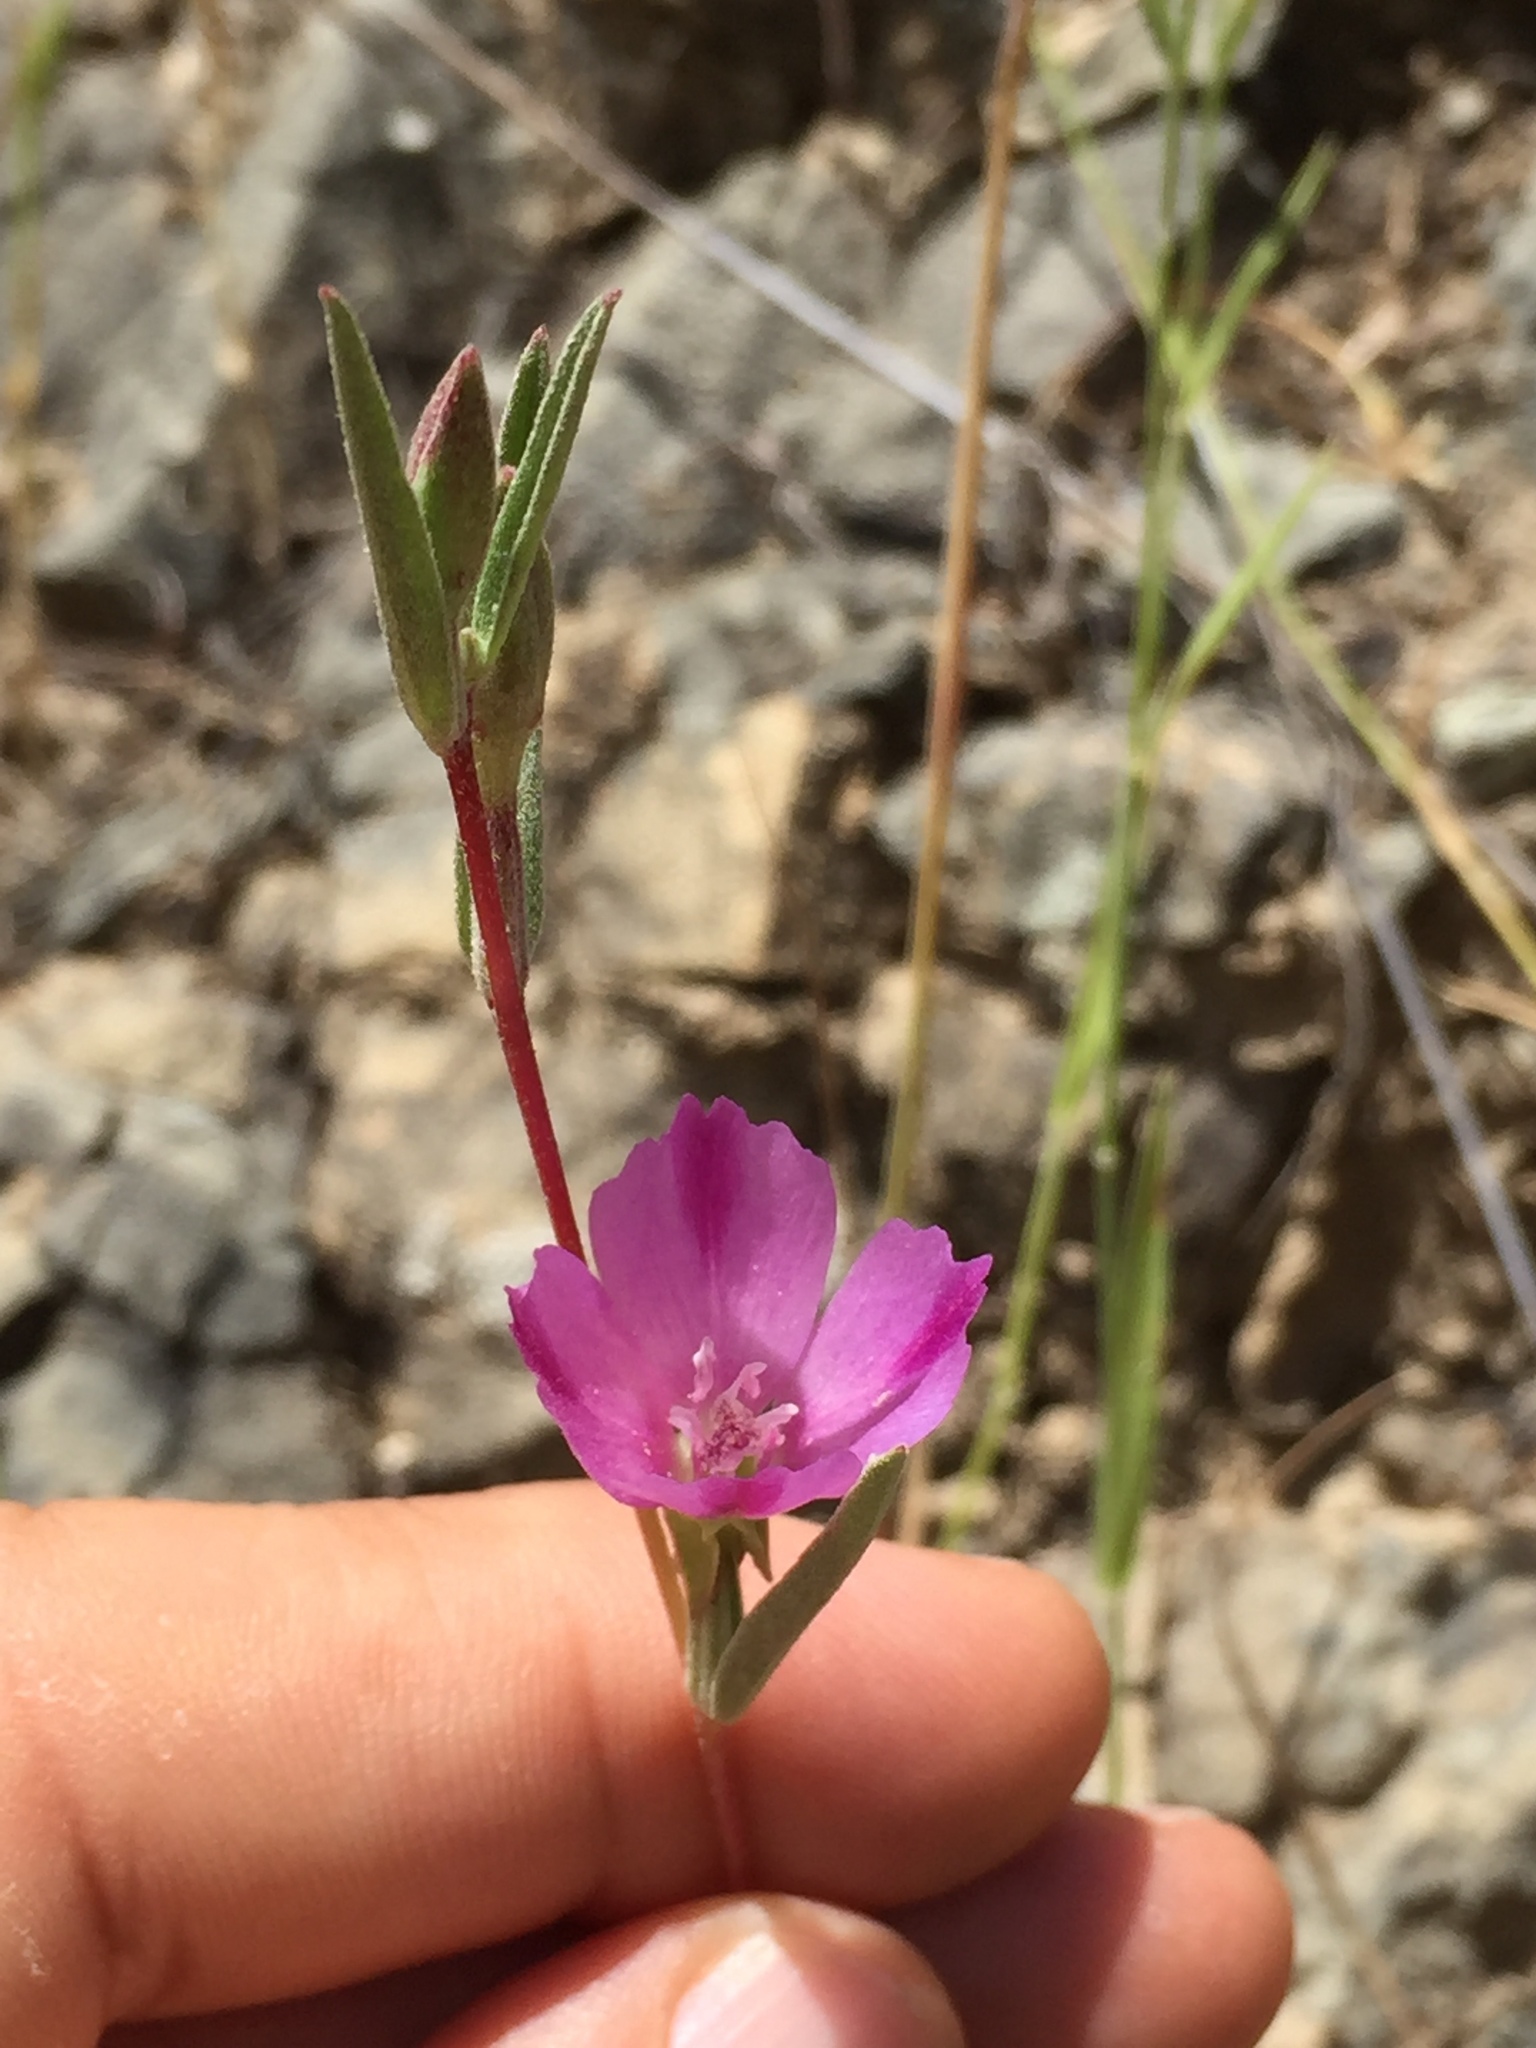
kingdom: Plantae
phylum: Tracheophyta
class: Magnoliopsida
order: Myrtales
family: Onagraceae
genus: Clarkia
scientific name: Clarkia purpurea
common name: Purple clarkia
